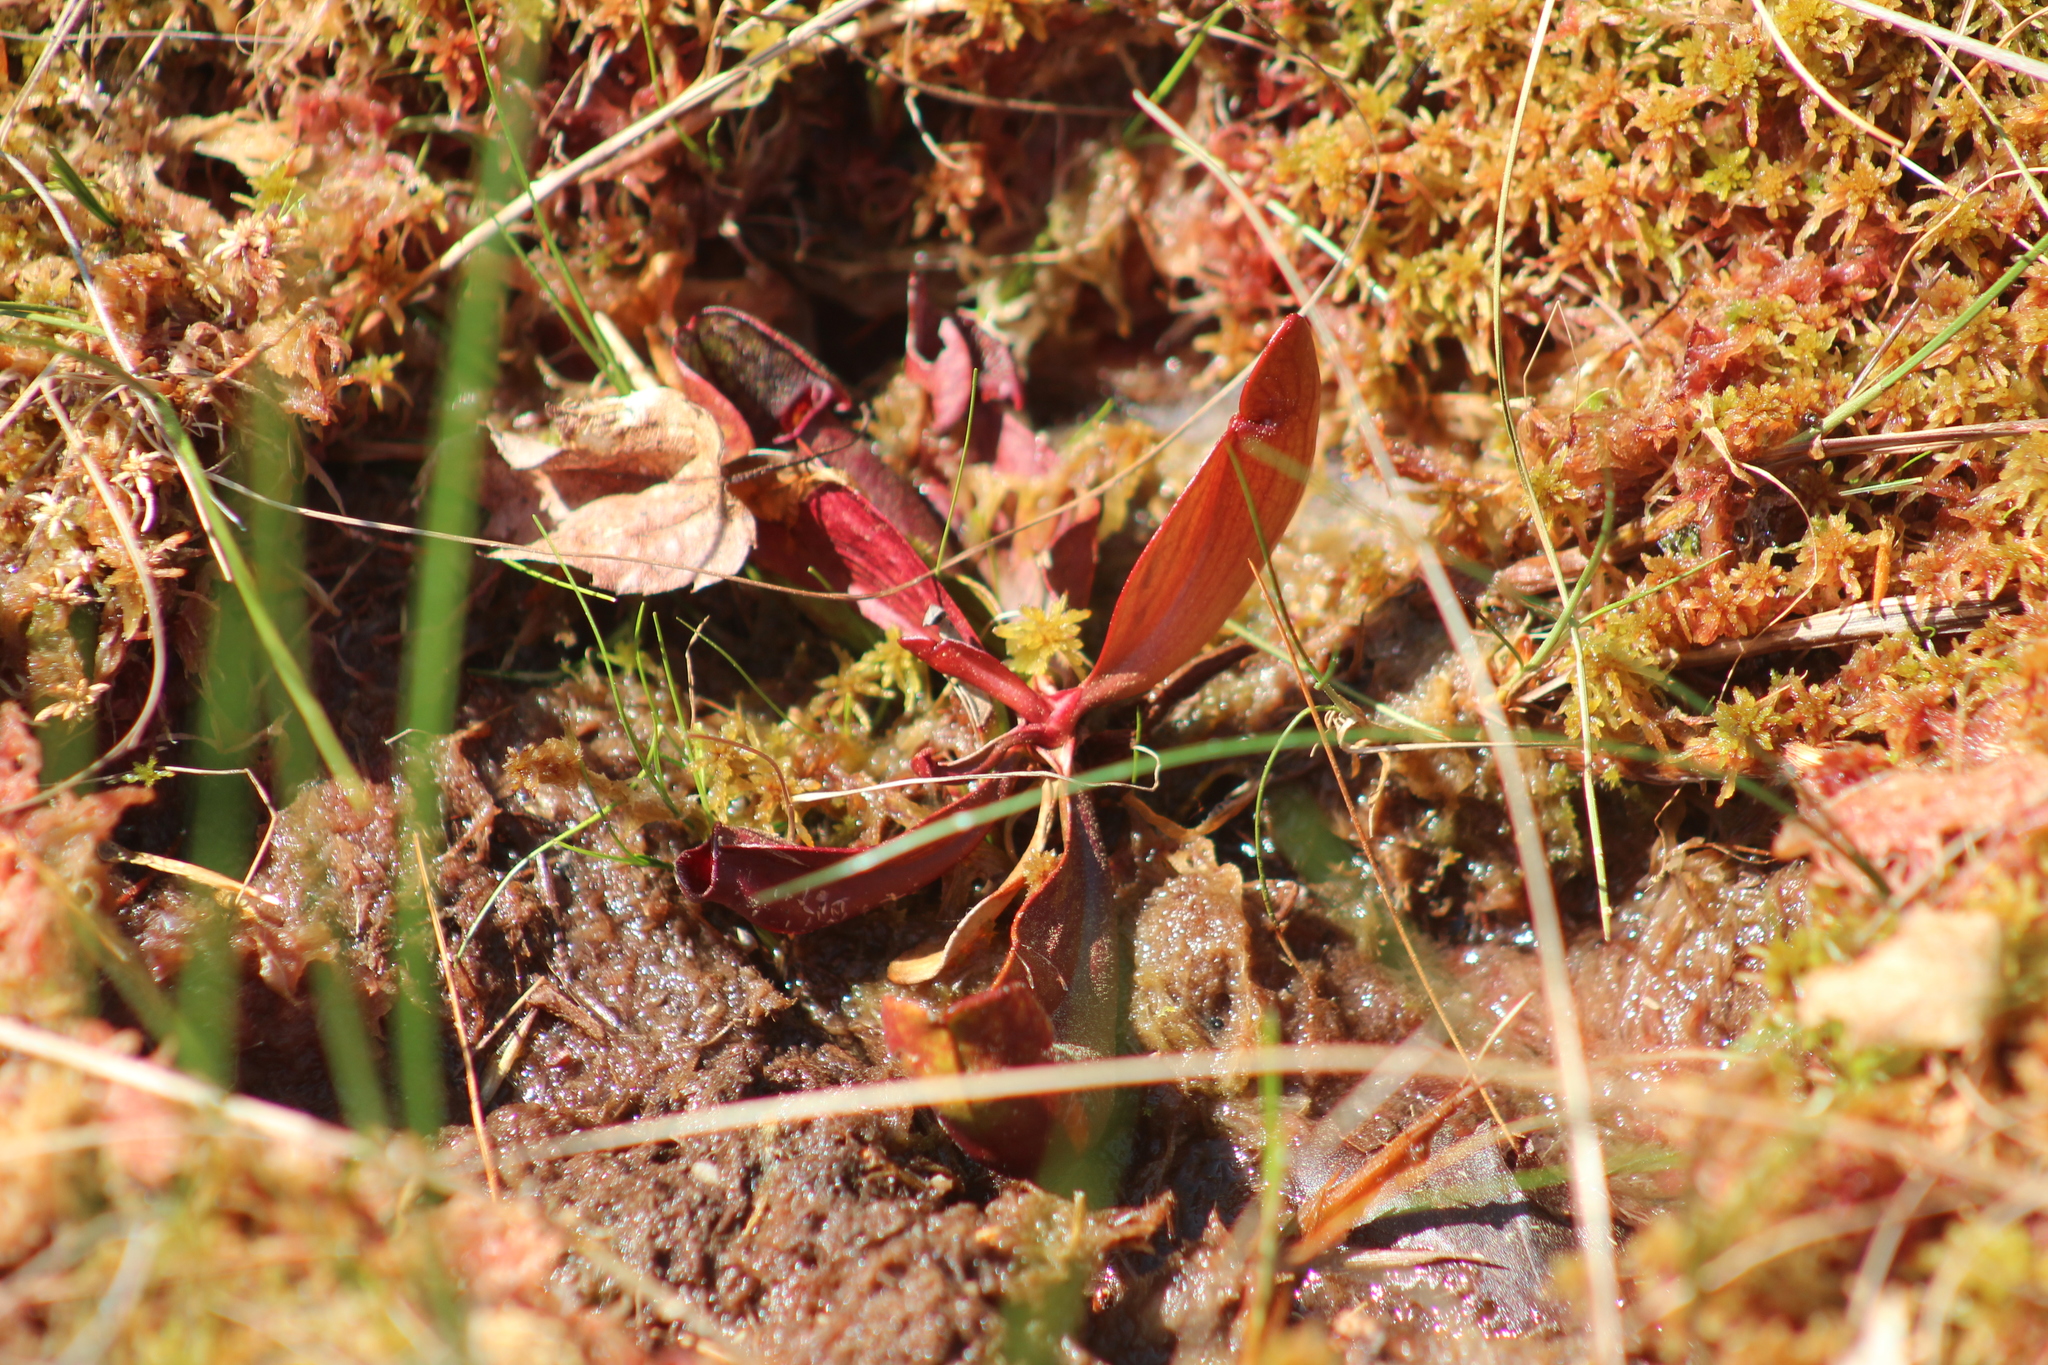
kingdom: Plantae
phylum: Tracheophyta
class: Magnoliopsida
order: Ericales
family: Sarraceniaceae
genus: Sarracenia
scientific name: Sarracenia purpurea
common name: Pitcherplant
